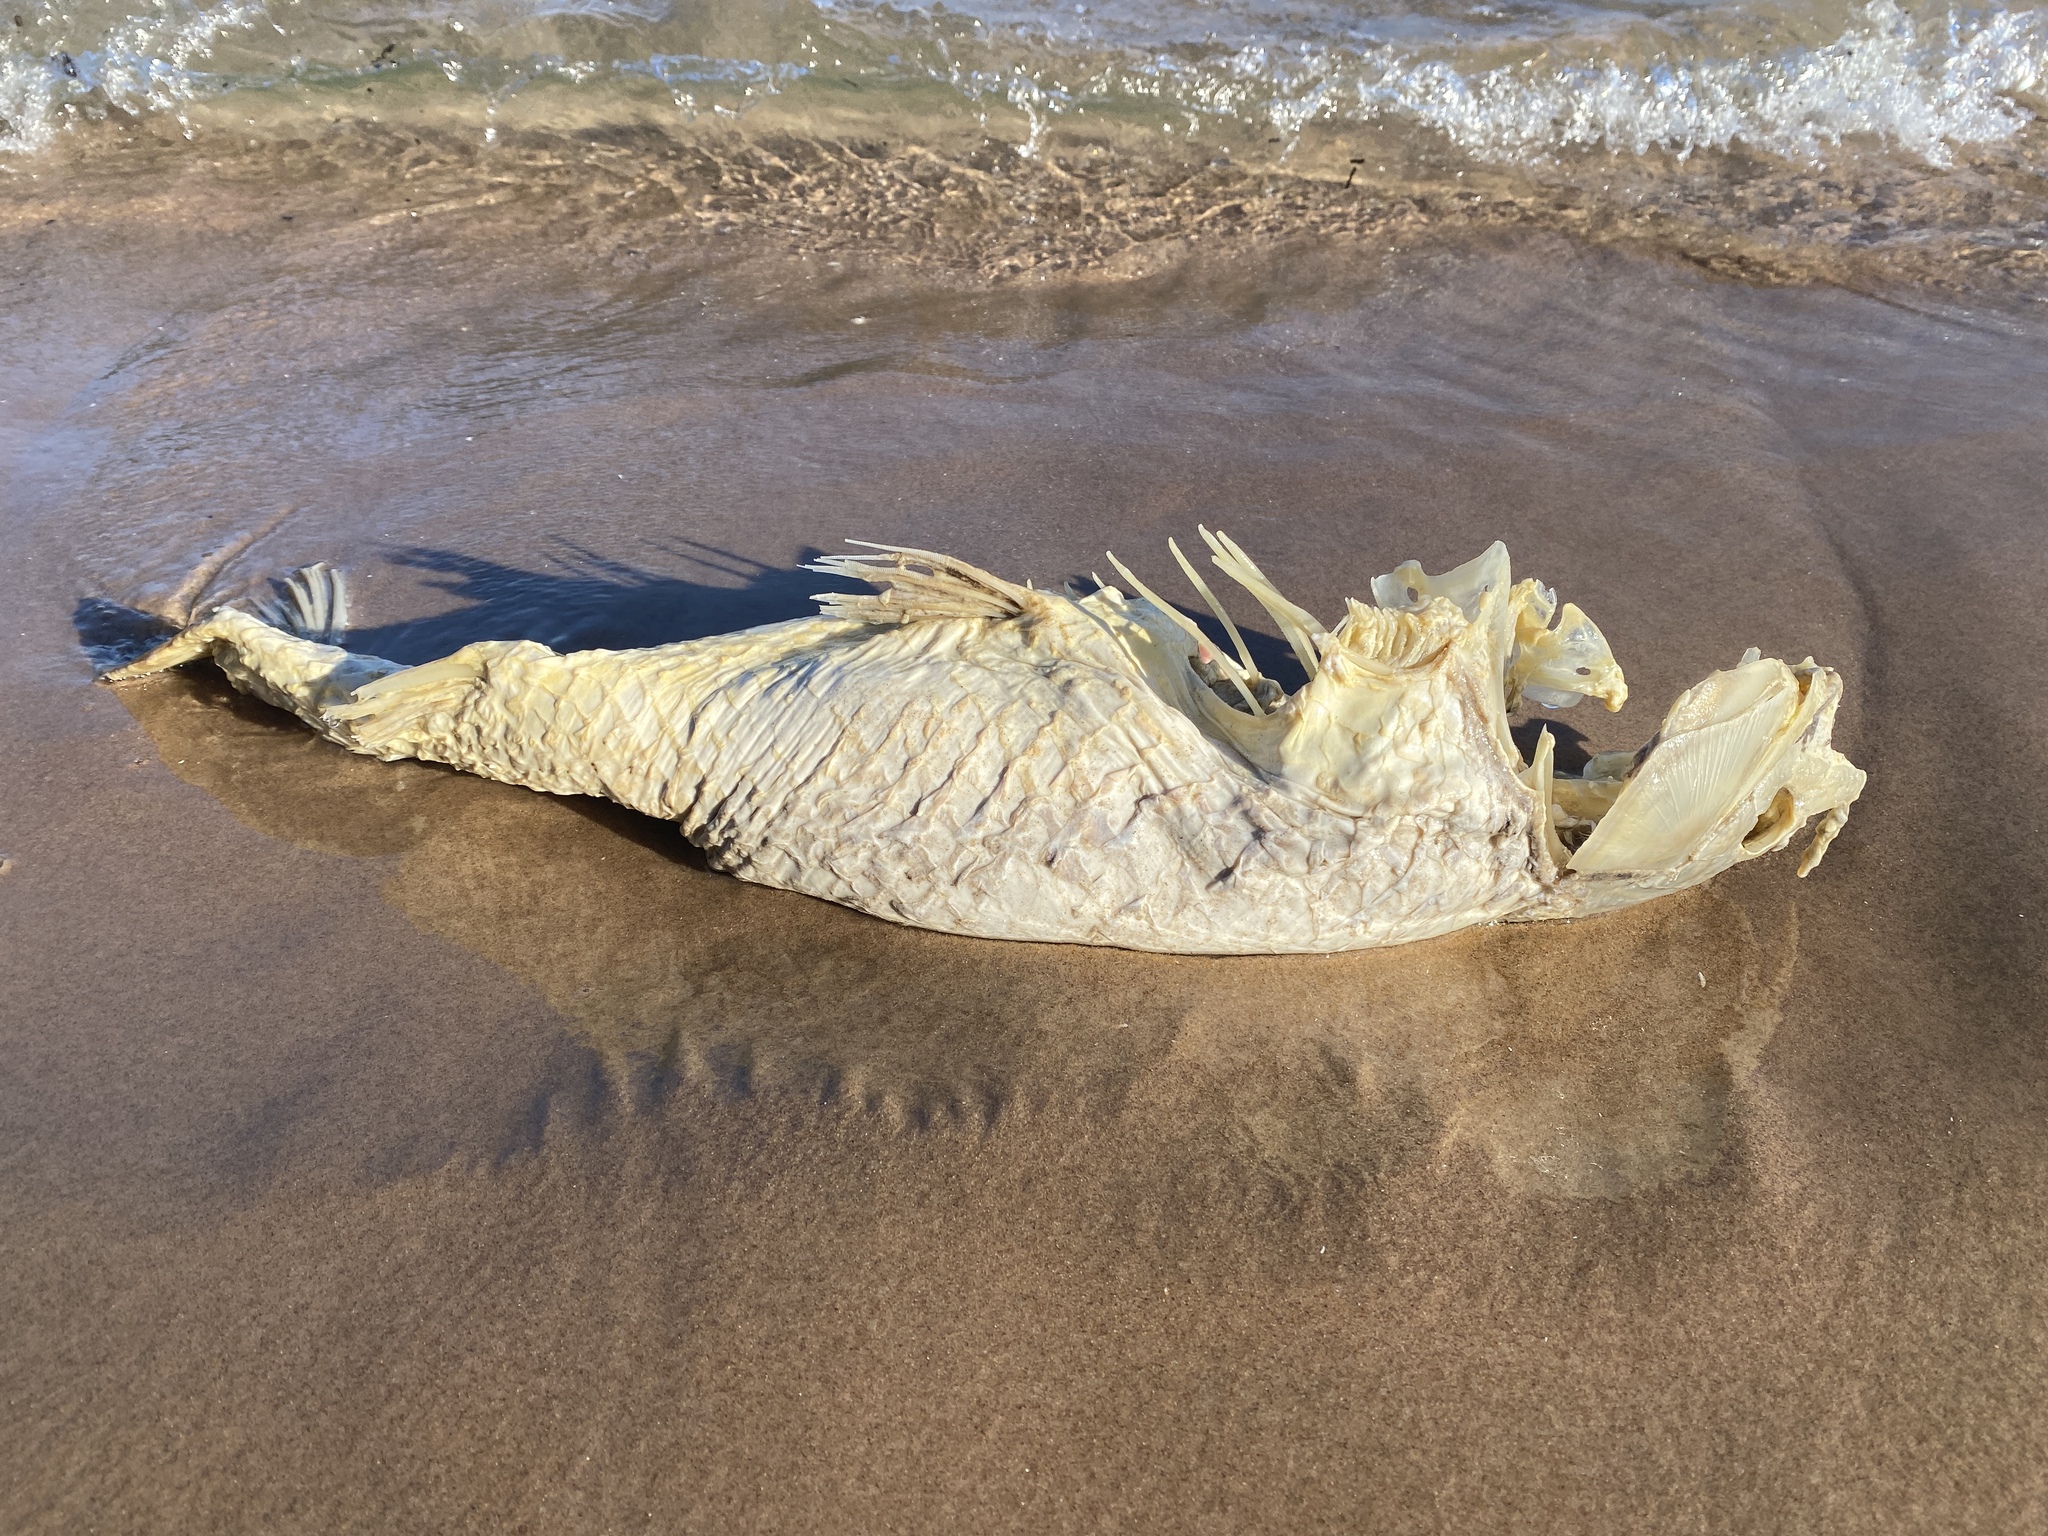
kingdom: Animalia
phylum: Chordata
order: Cypriniformes
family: Cyprinidae
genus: Cyprinus
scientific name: Cyprinus carpio
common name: Common carp
